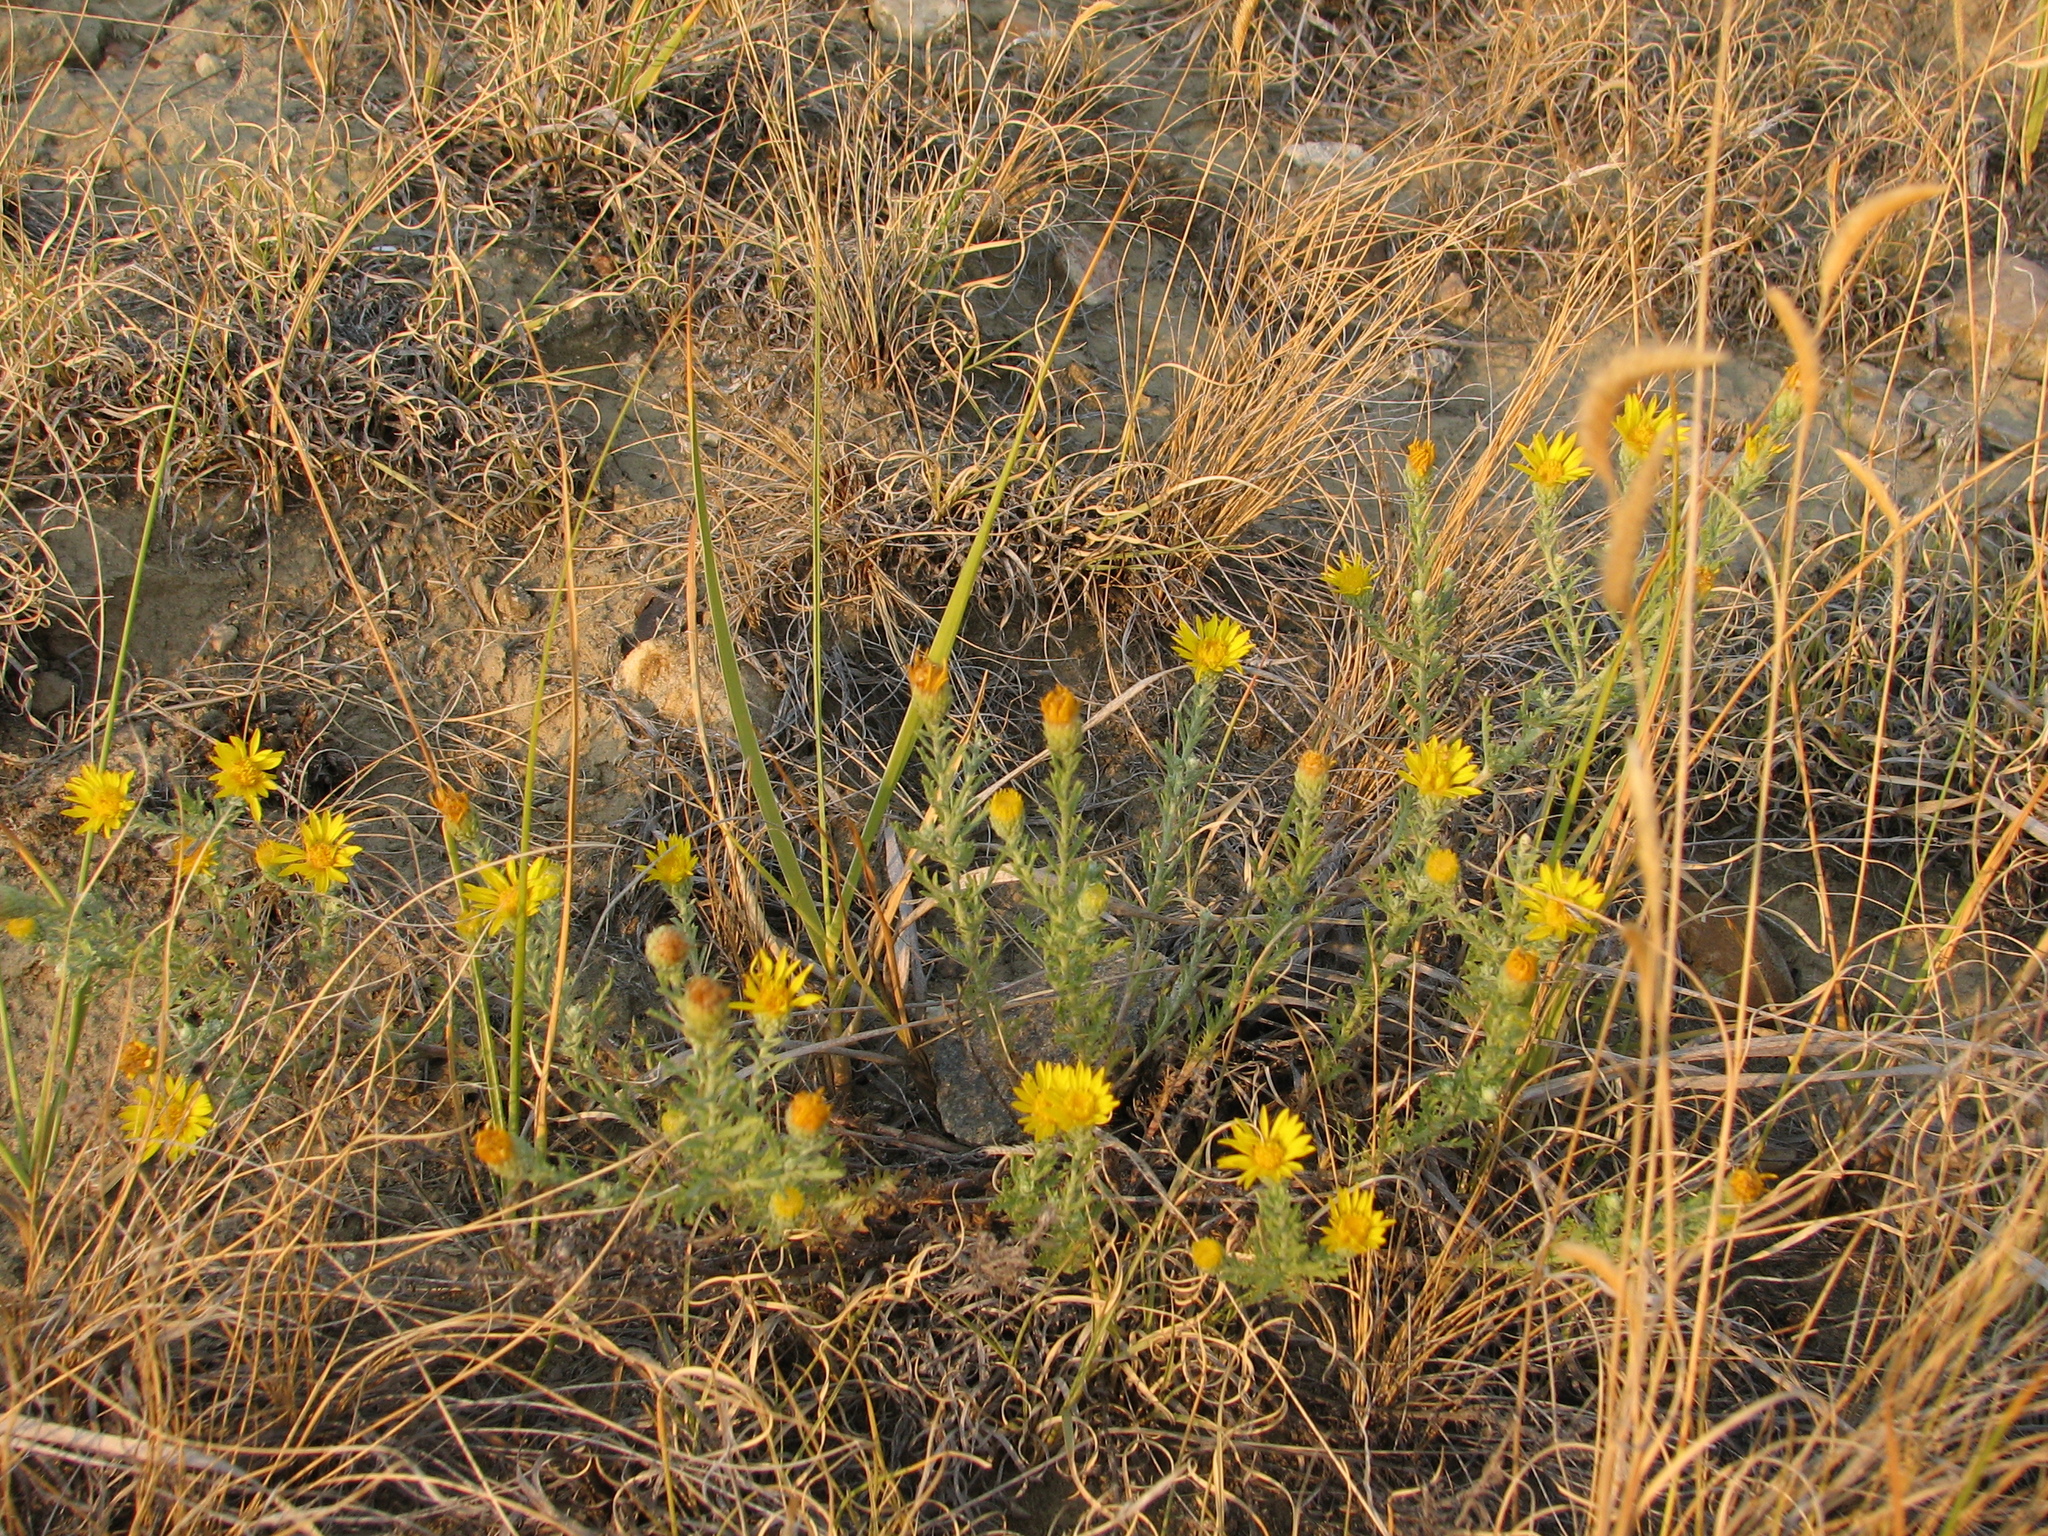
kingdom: Plantae
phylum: Tracheophyta
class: Magnoliopsida
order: Asterales
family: Asteraceae
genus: Xanthisma
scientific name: Xanthisma spinulosum
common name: Spiny goldenweed
